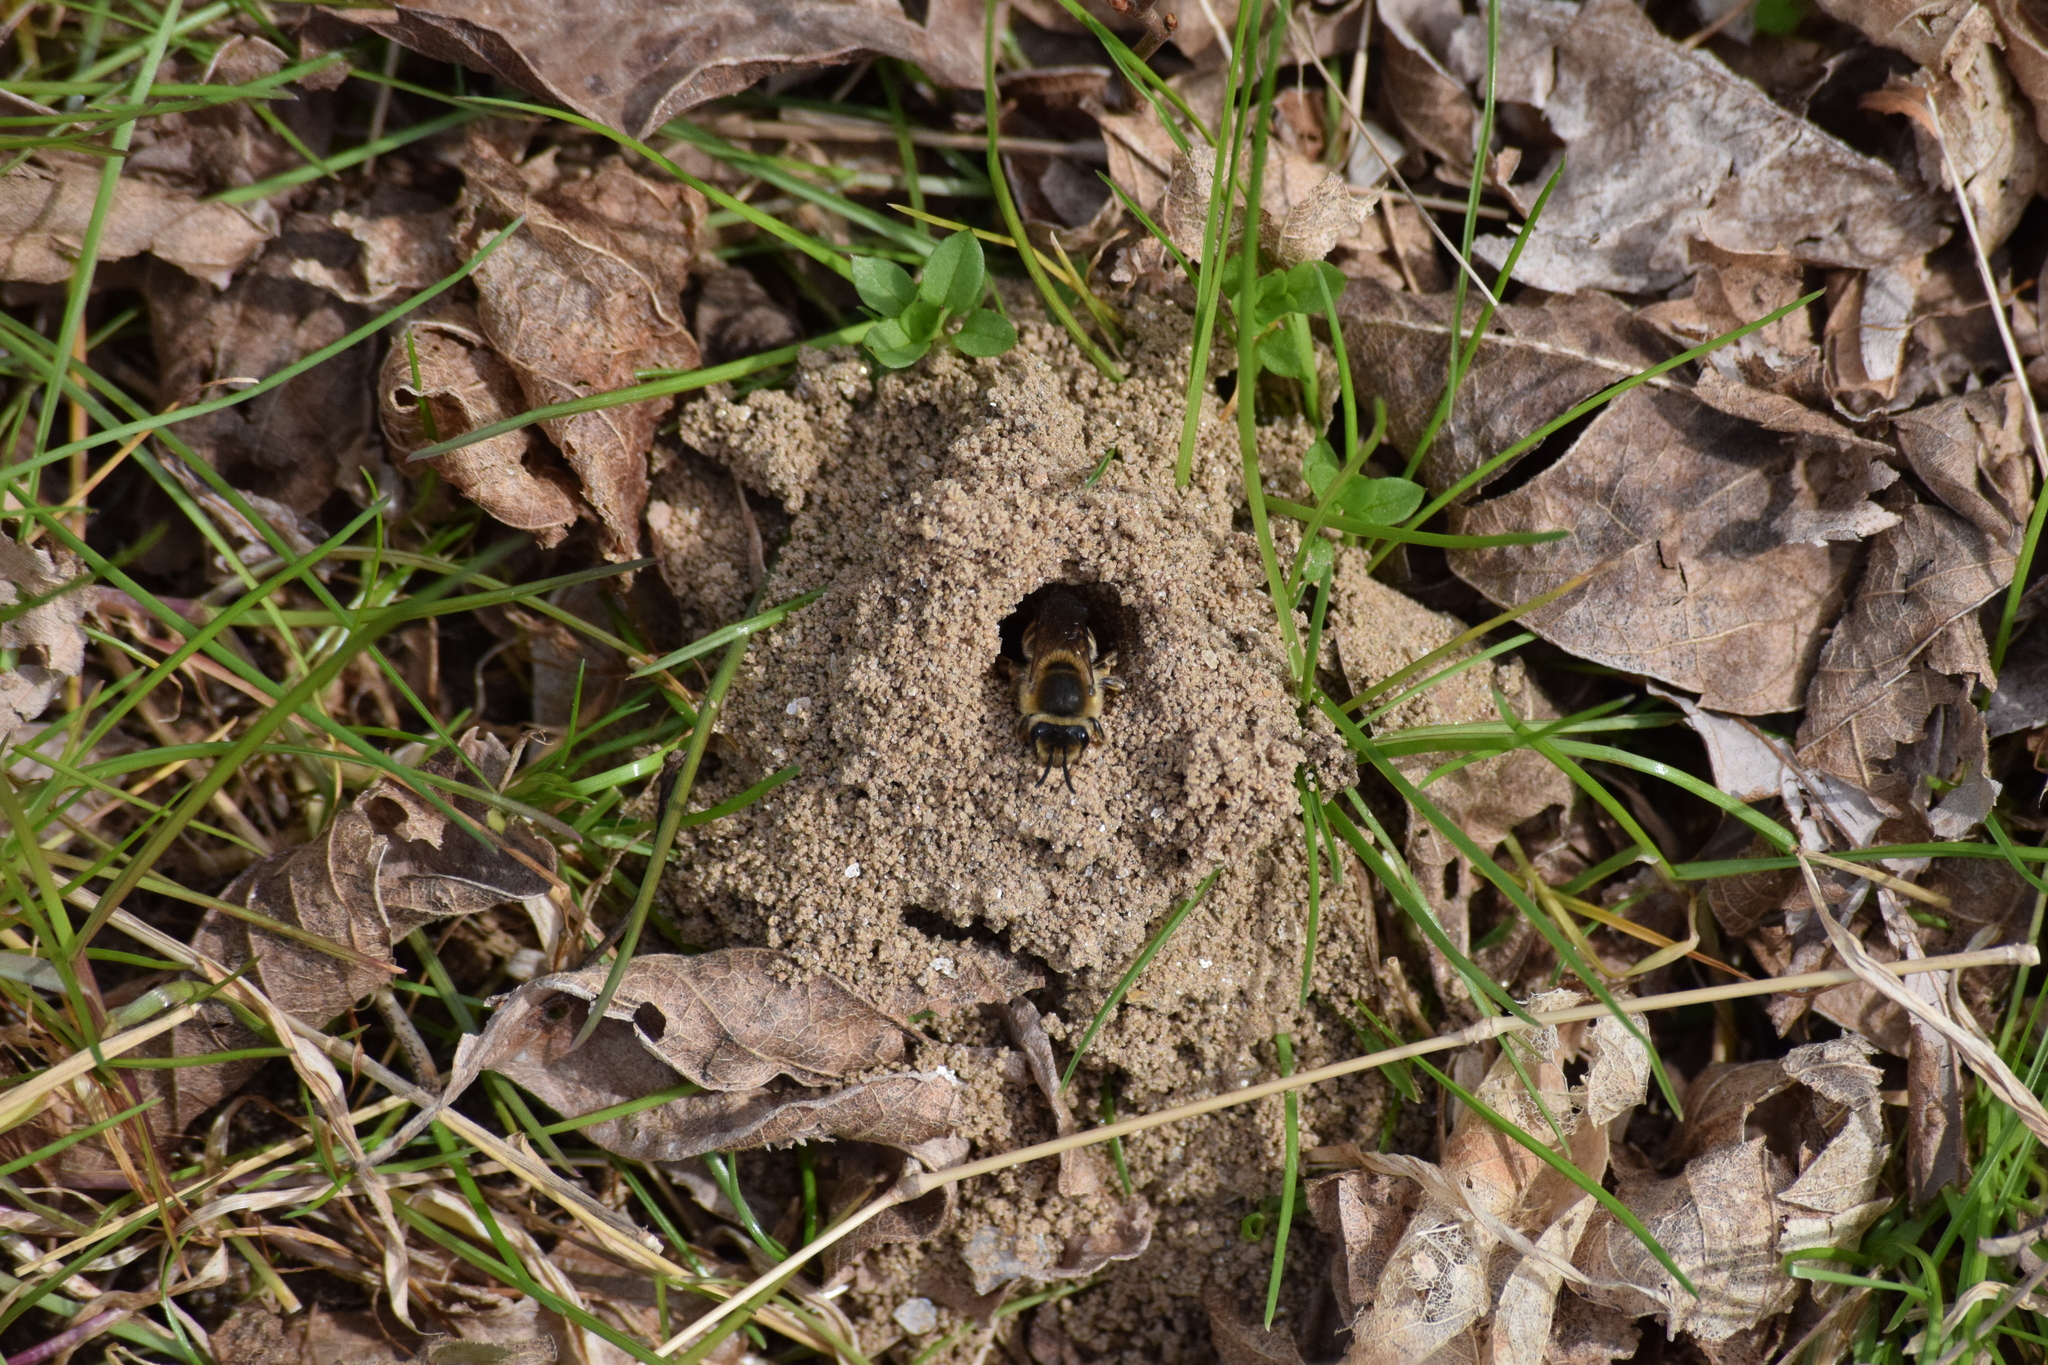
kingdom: Animalia
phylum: Arthropoda
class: Insecta
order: Hymenoptera
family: Colletidae
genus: Colletes
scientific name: Colletes inaequalis
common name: Unequal cellophane bee
